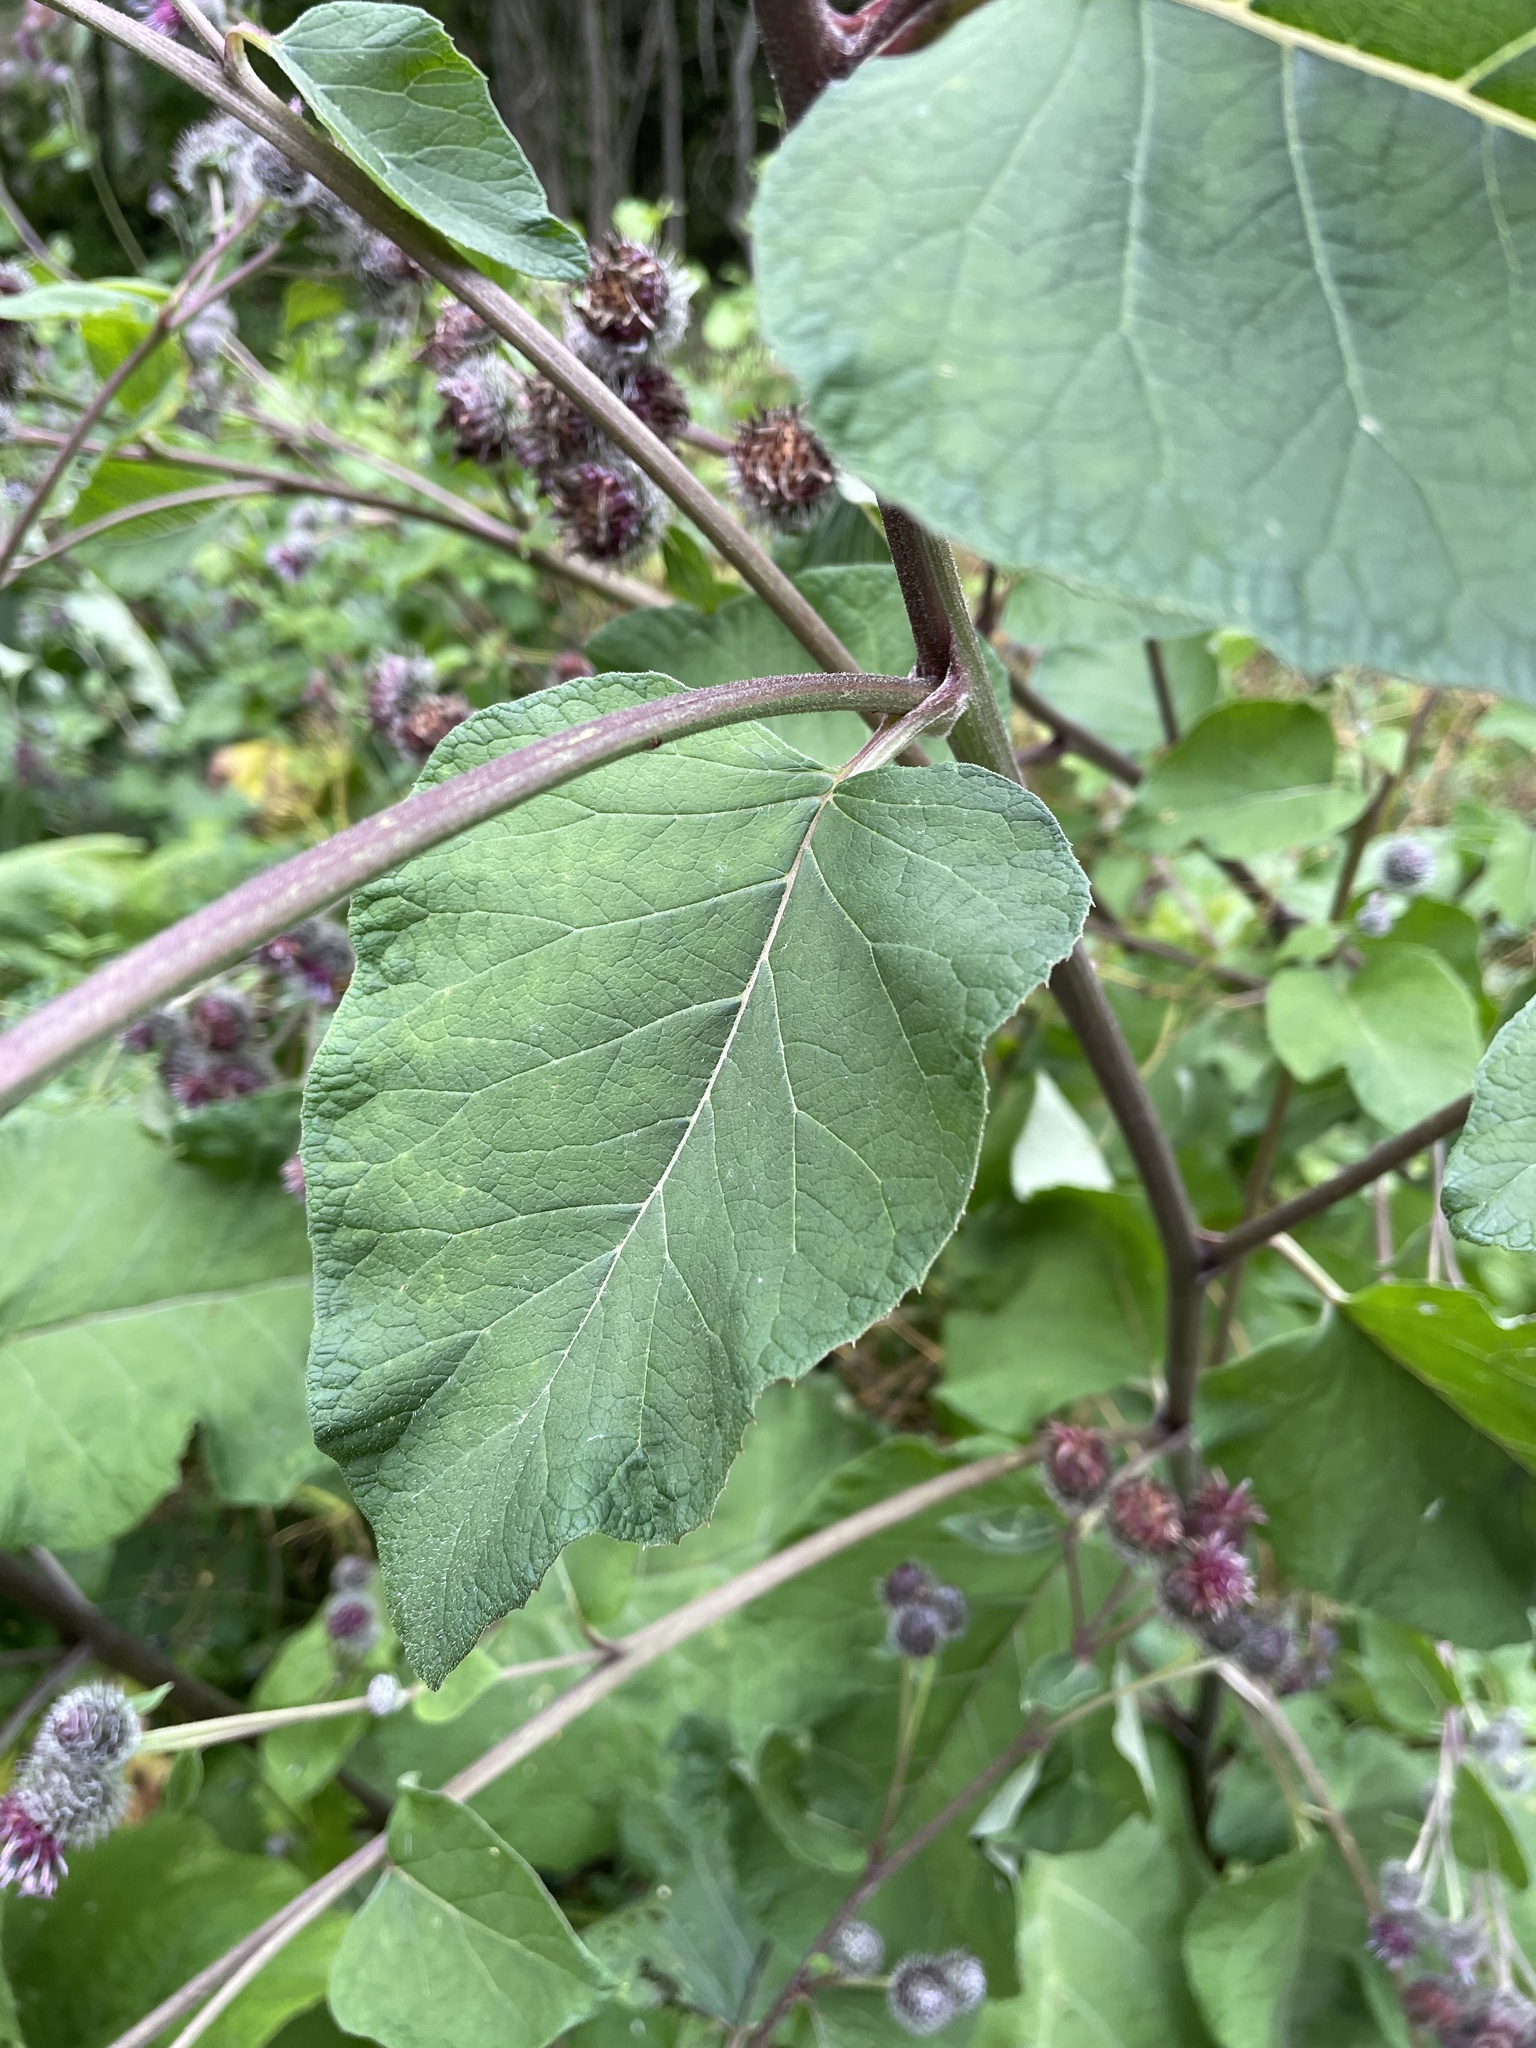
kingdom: Plantae
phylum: Tracheophyta
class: Magnoliopsida
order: Asterales
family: Asteraceae
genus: Arctium
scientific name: Arctium tomentosum
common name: Woolly burdock
